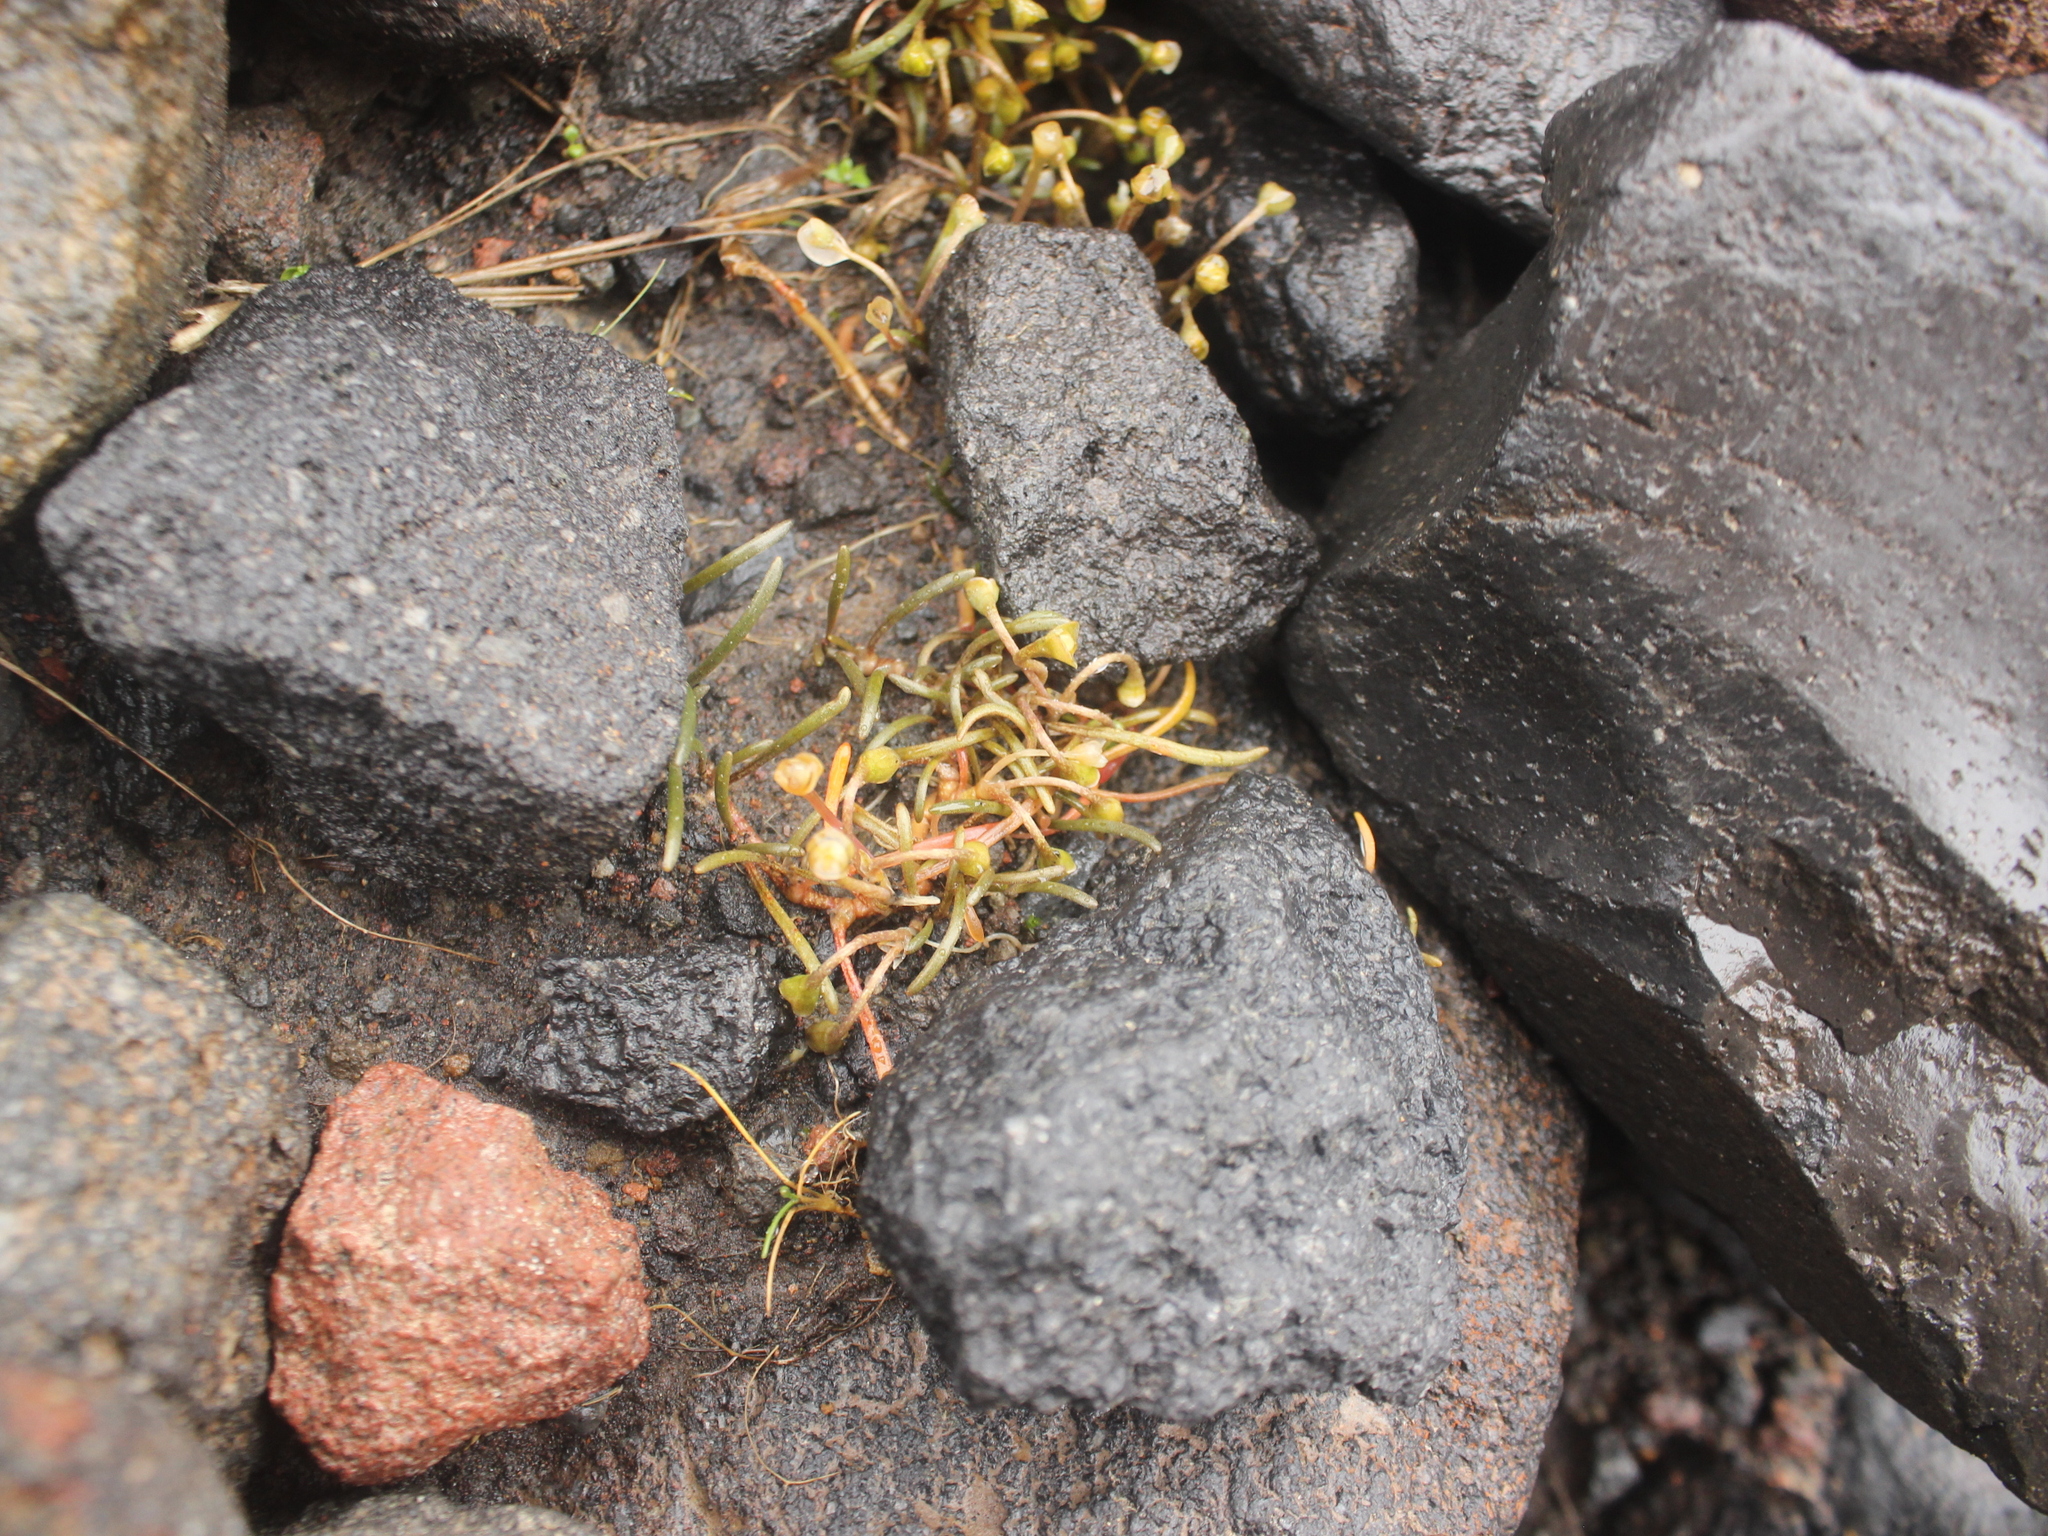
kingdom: Plantae
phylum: Tracheophyta
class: Magnoliopsida
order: Caryophyllales
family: Montiaceae
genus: Montia
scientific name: Montia calycina
